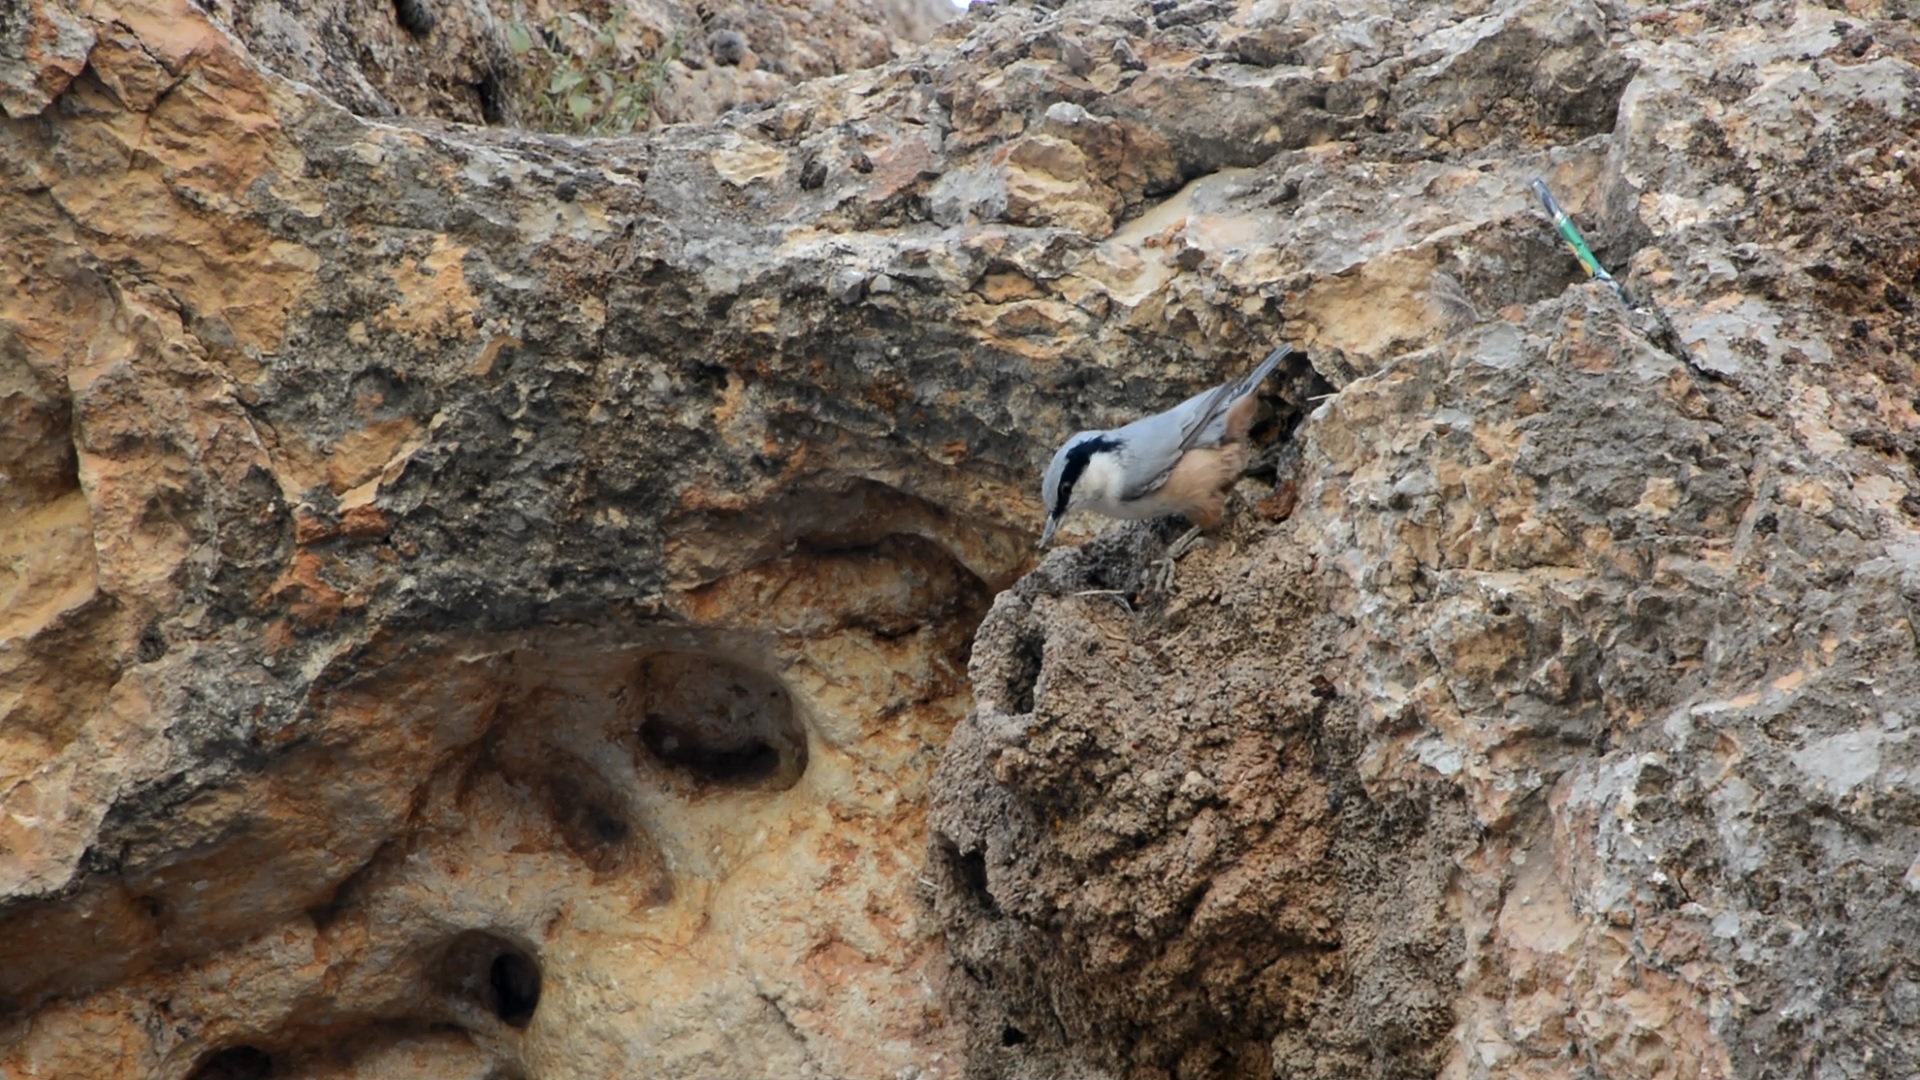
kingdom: Animalia
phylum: Chordata
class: Aves
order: Passeriformes
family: Sittidae
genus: Sitta
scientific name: Sitta tephronota
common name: Eastern rock nuthatch
